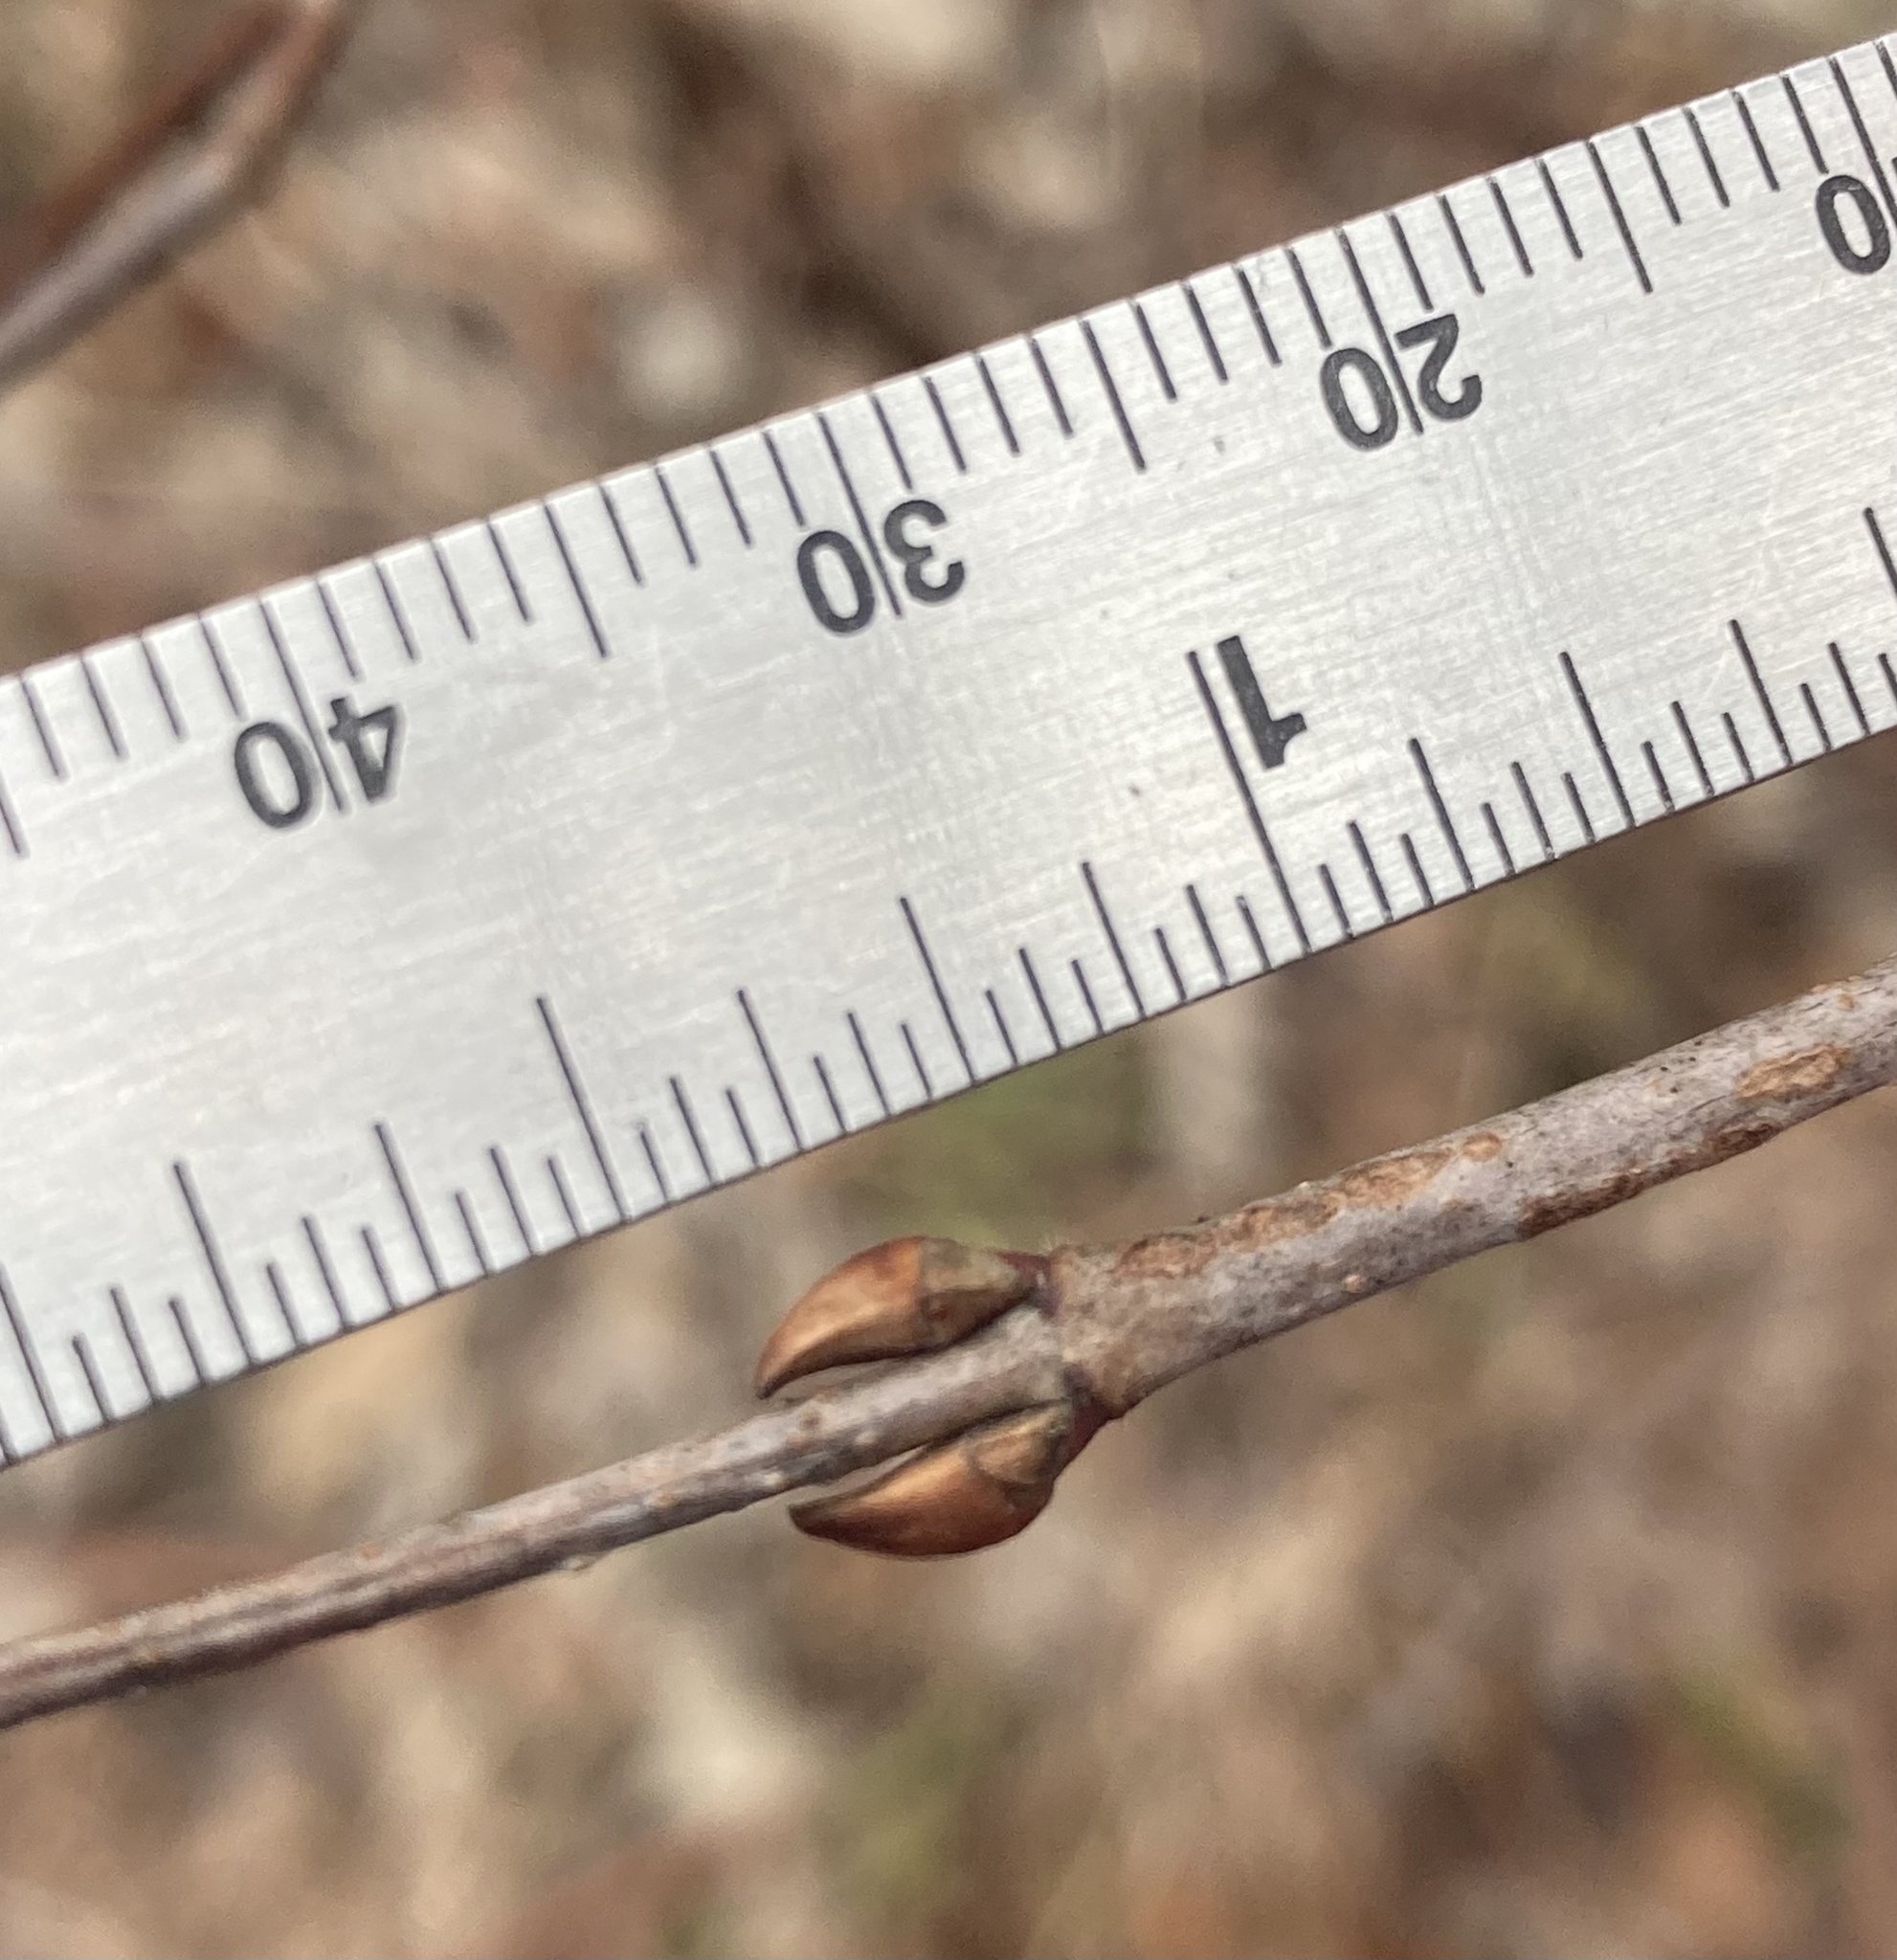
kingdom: Plantae
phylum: Tracheophyta
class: Magnoliopsida
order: Dipsacales
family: Viburnaceae
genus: Viburnum
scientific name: Viburnum rafinesqueanum
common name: Downy arrow-wood
